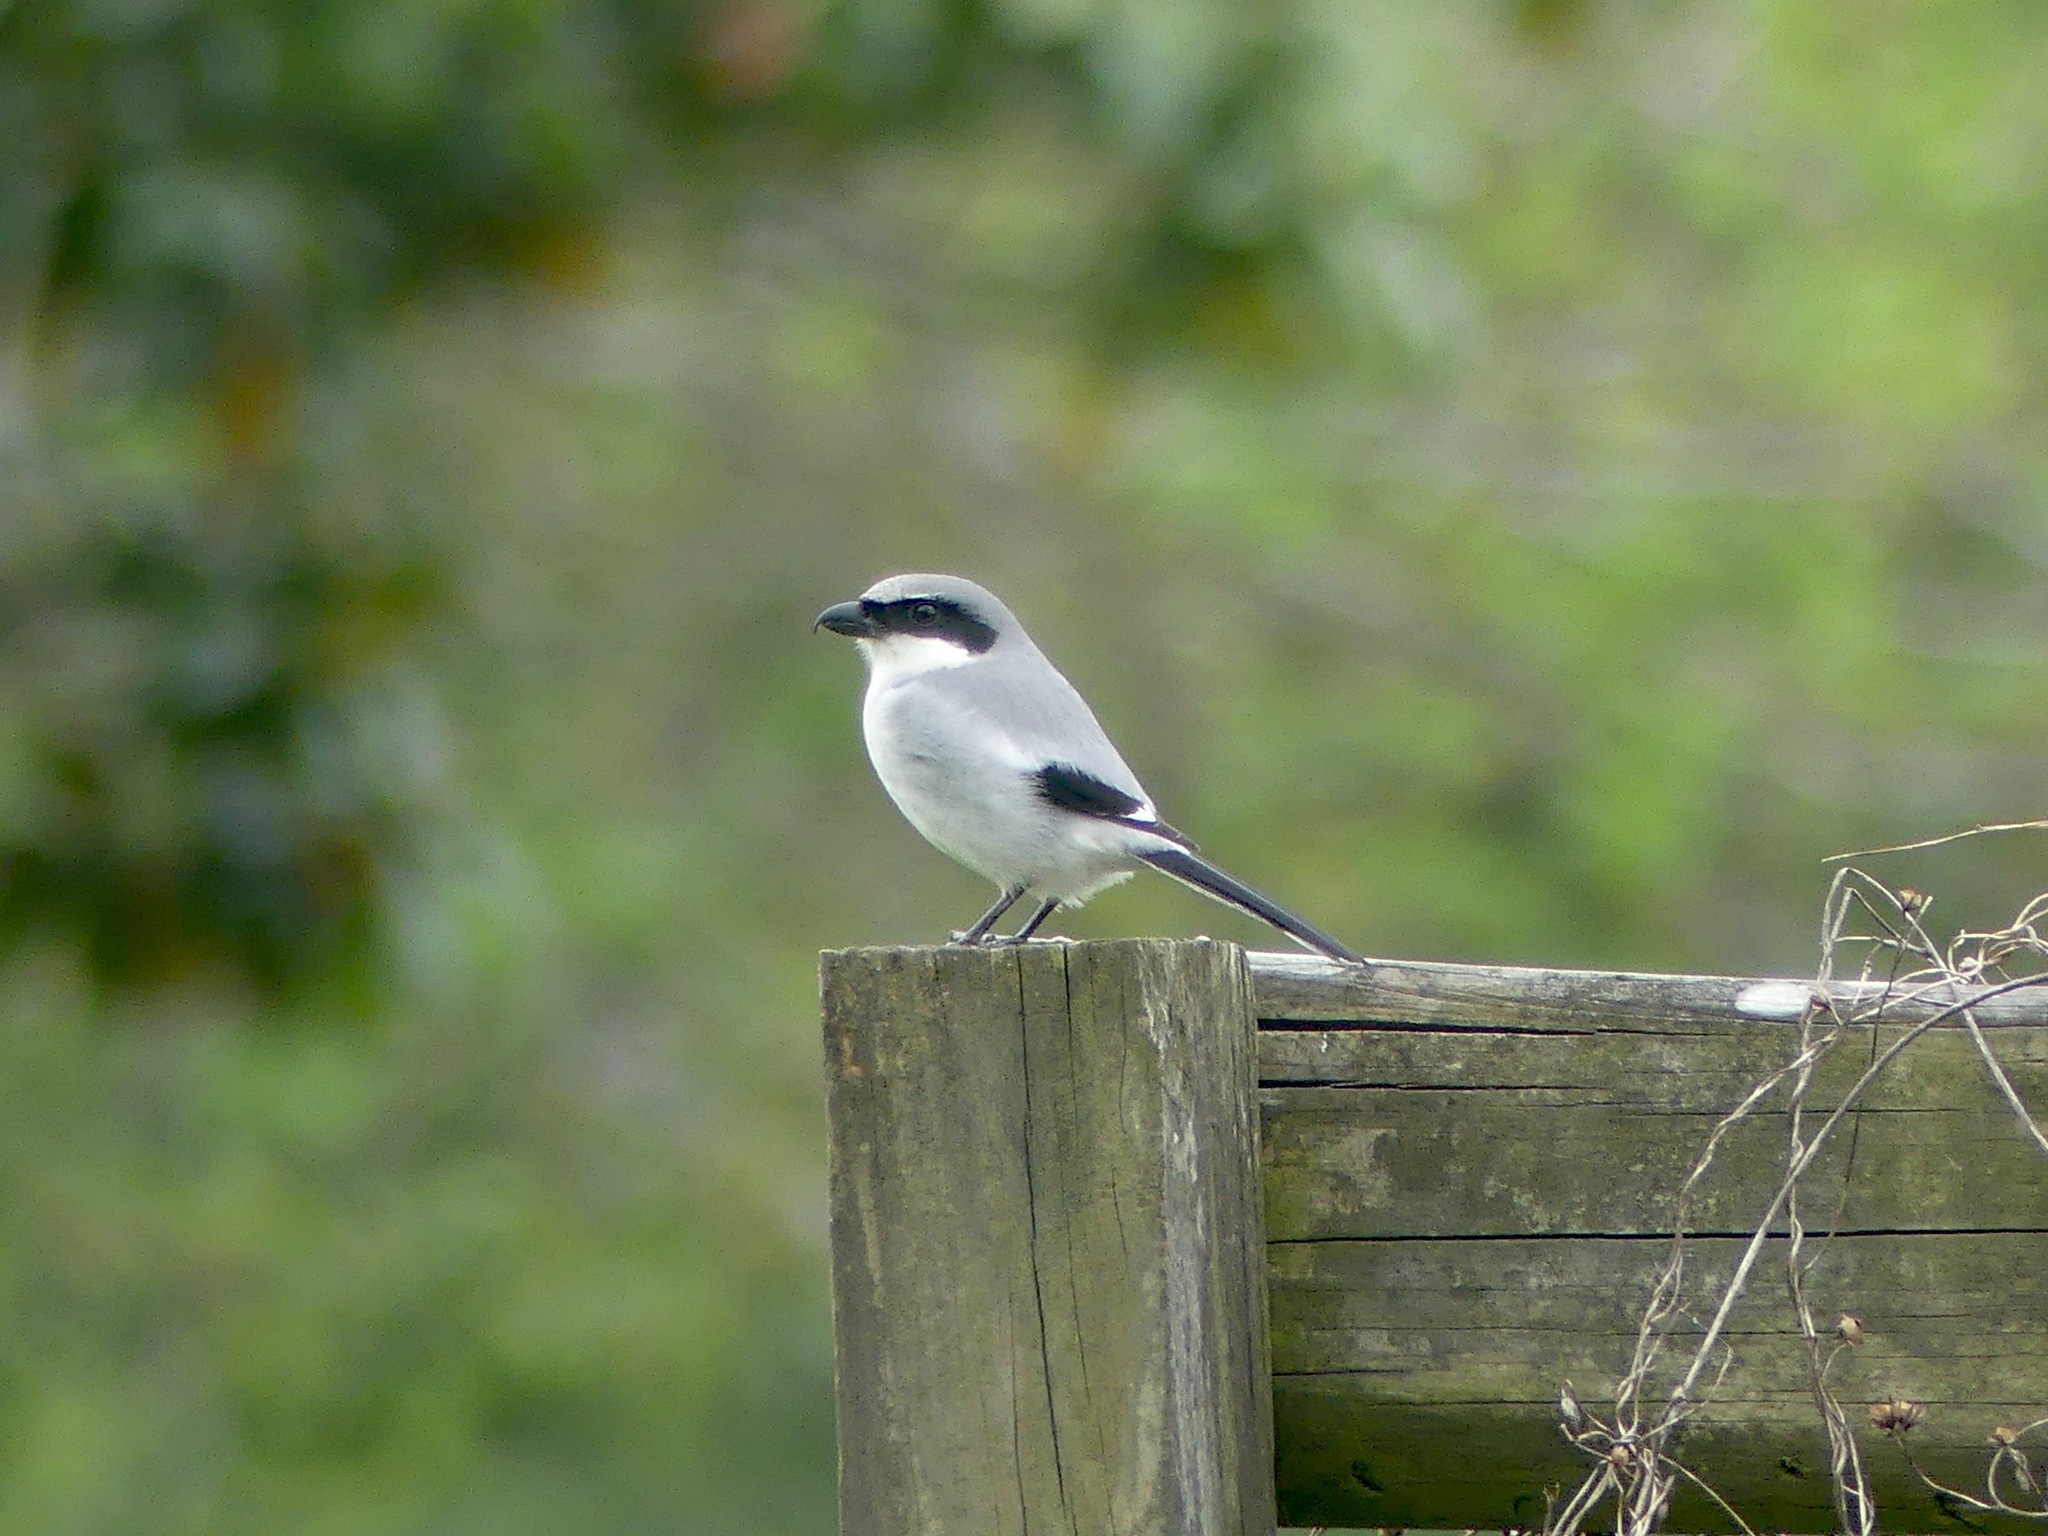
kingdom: Animalia
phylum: Chordata
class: Aves
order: Passeriformes
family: Laniidae
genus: Lanius
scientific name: Lanius ludovicianus
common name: Loggerhead shrike
